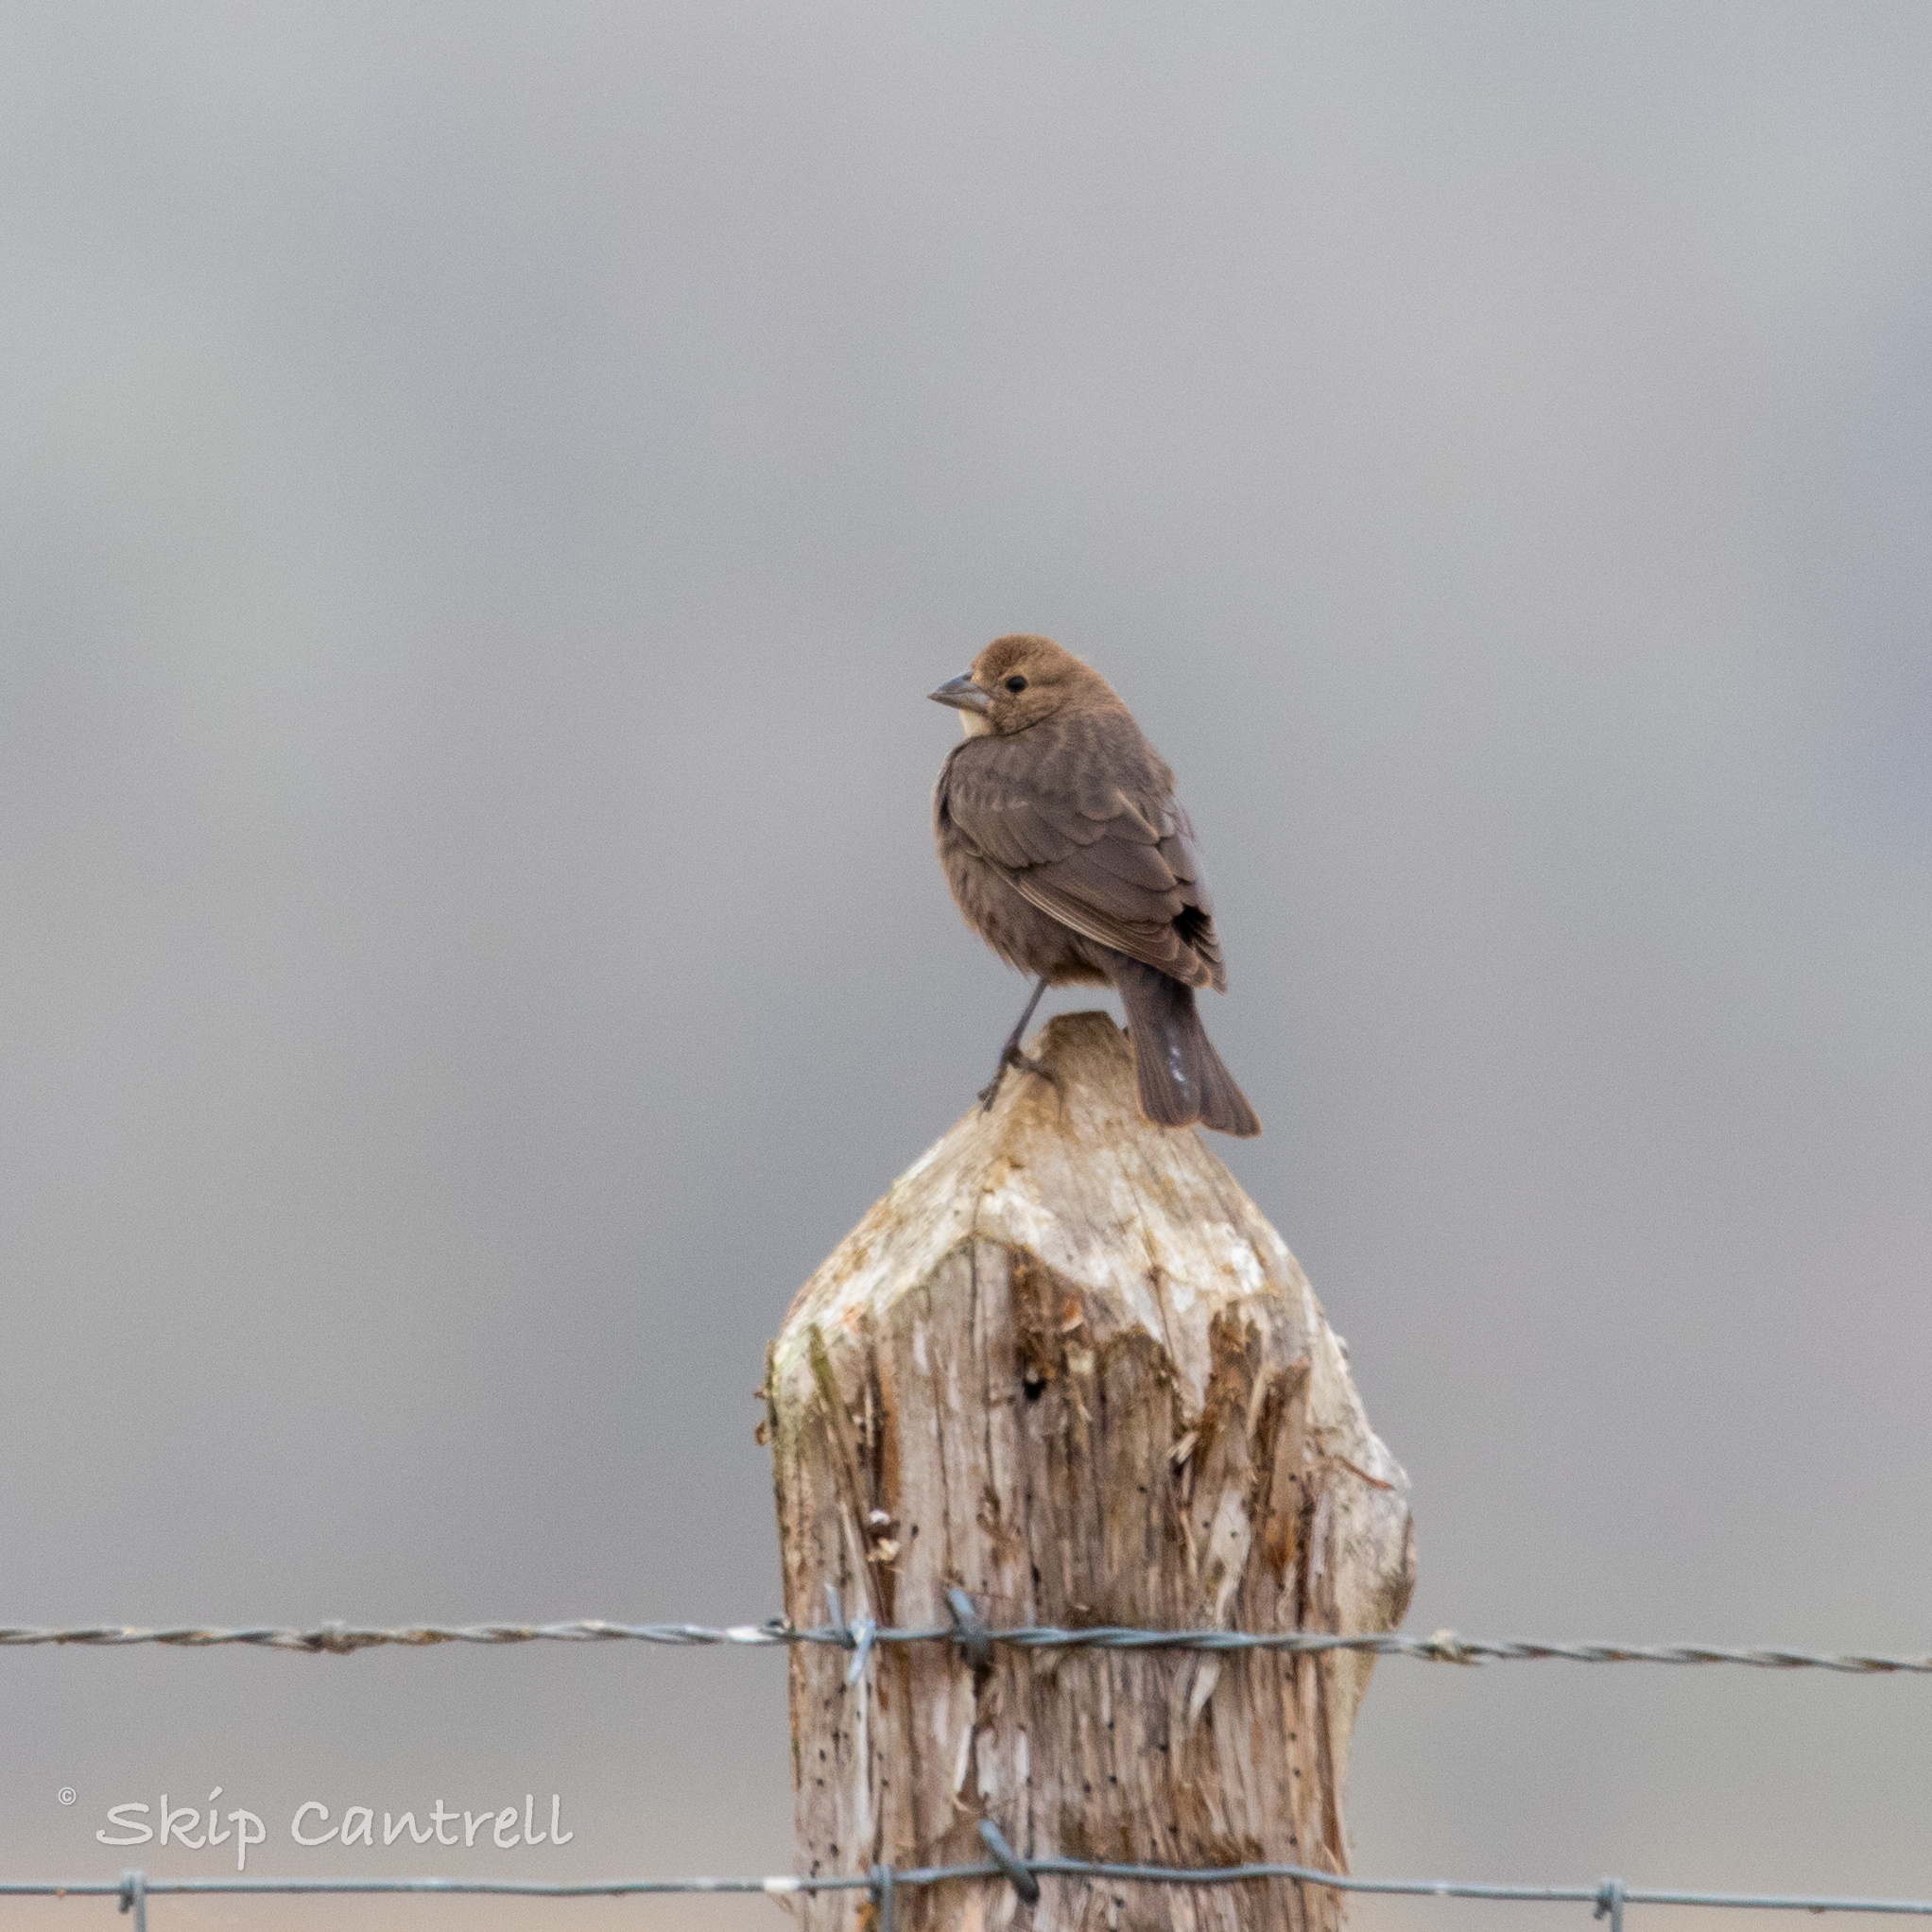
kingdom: Animalia
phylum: Chordata
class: Aves
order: Passeriformes
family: Icteridae
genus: Molothrus
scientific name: Molothrus ater
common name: Brown-headed cowbird
